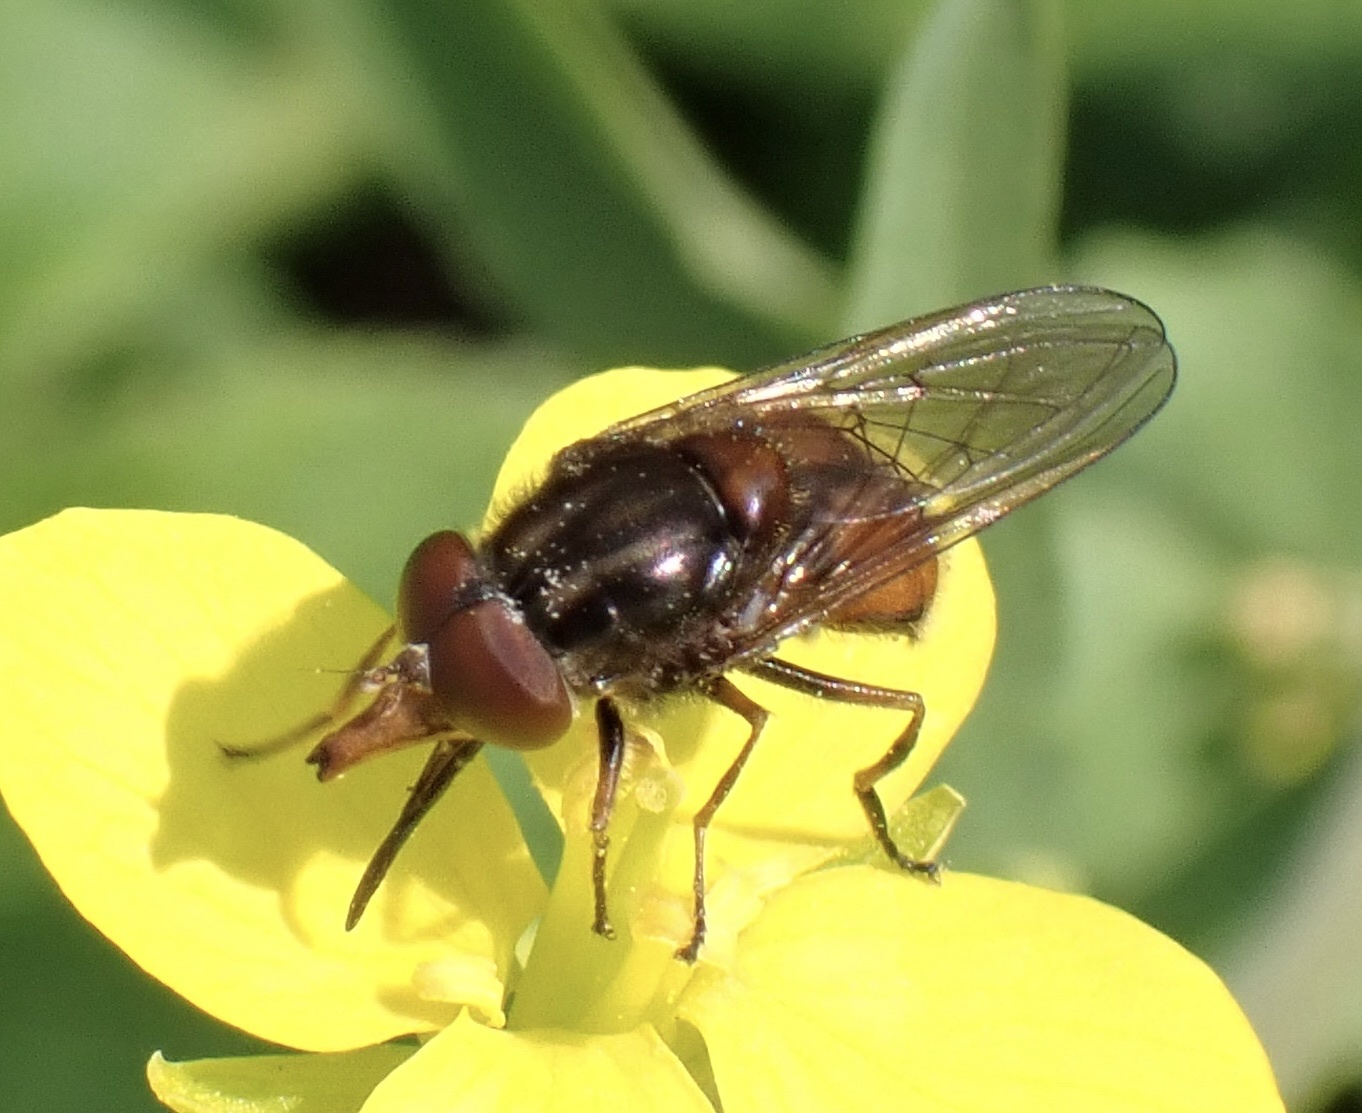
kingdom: Animalia
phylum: Arthropoda
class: Insecta
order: Diptera
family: Syrphidae
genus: Rhingia
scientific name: Rhingia campestris
